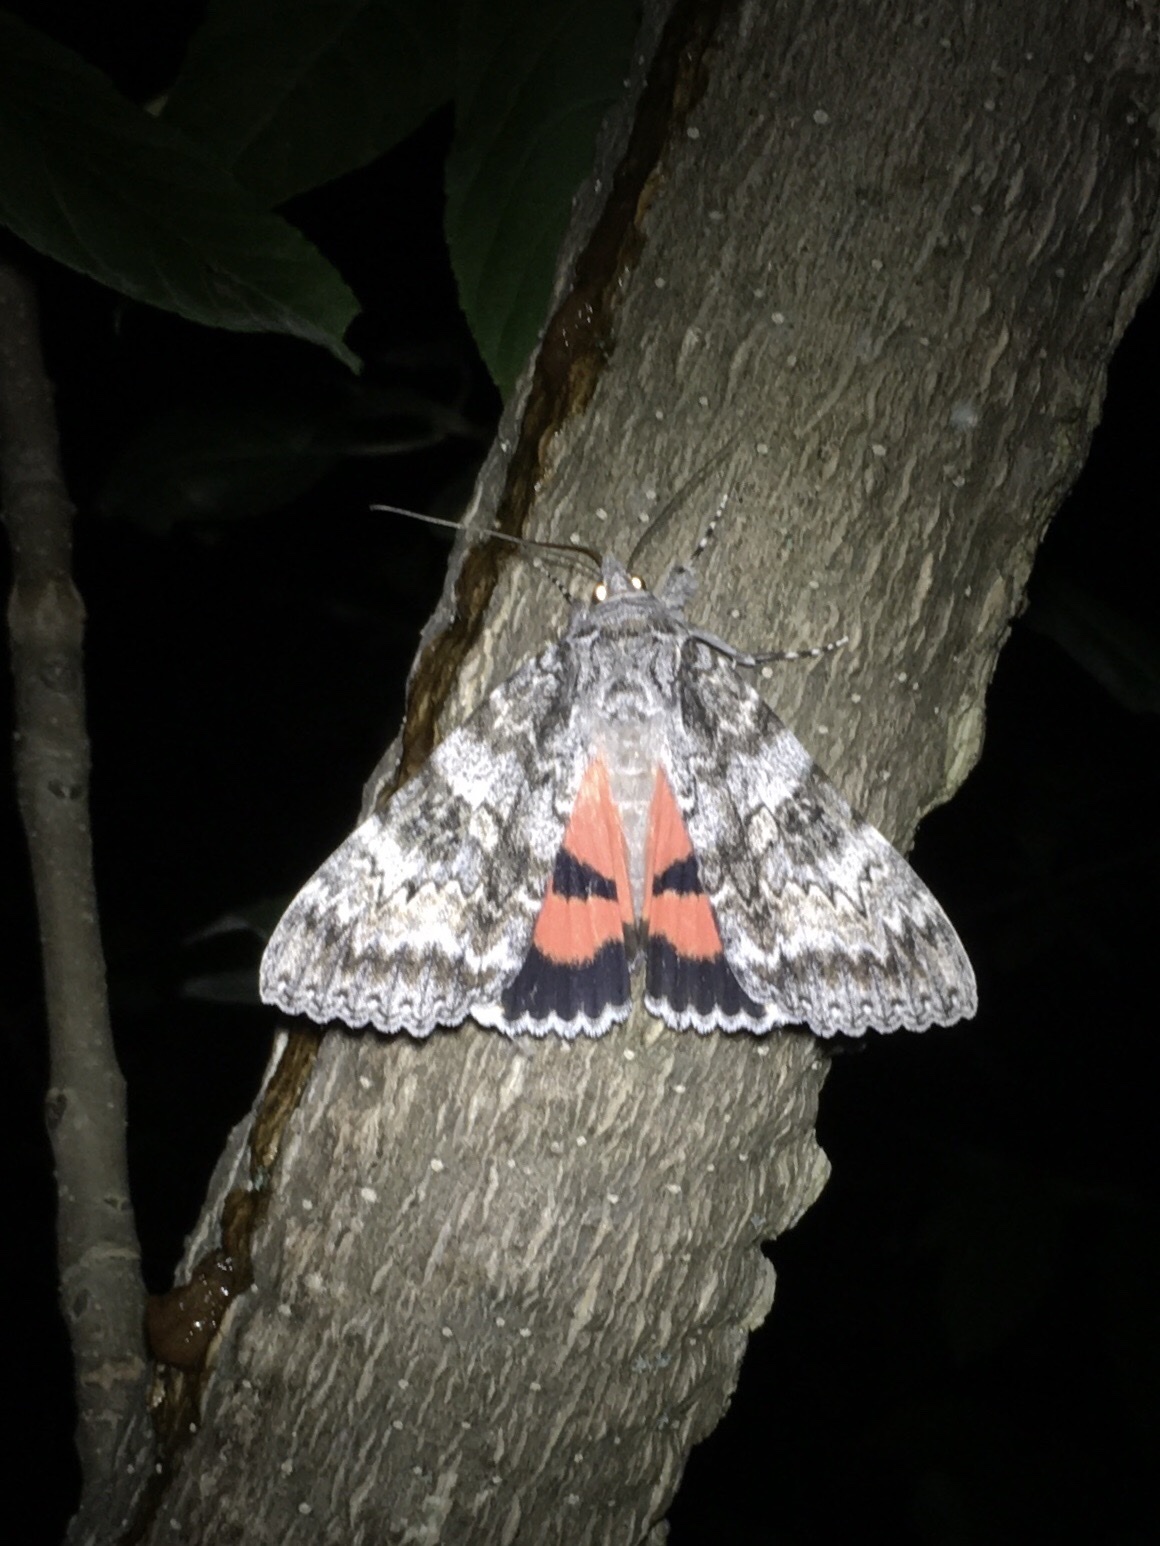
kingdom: Animalia
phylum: Arthropoda
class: Insecta
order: Lepidoptera
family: Erebidae
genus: Catocala
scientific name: Catocala semirelicta
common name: Semirelict underwing moth
